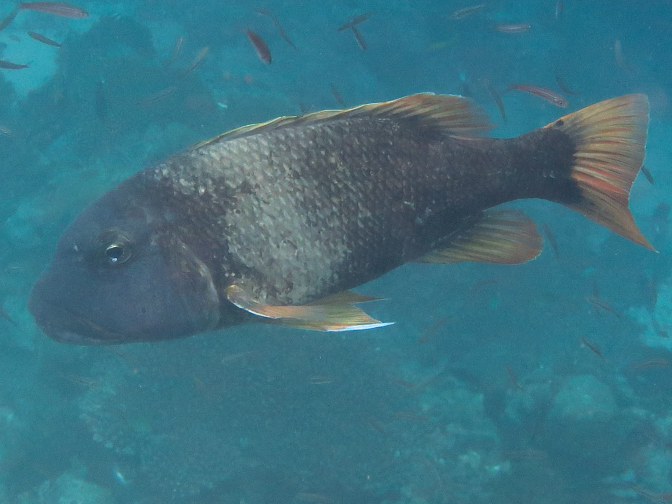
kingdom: Animalia
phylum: Chordata
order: Perciformes
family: Lethrinidae
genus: Lethrinus
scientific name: Lethrinus erythracanthus
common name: Orange-spotted emperor
